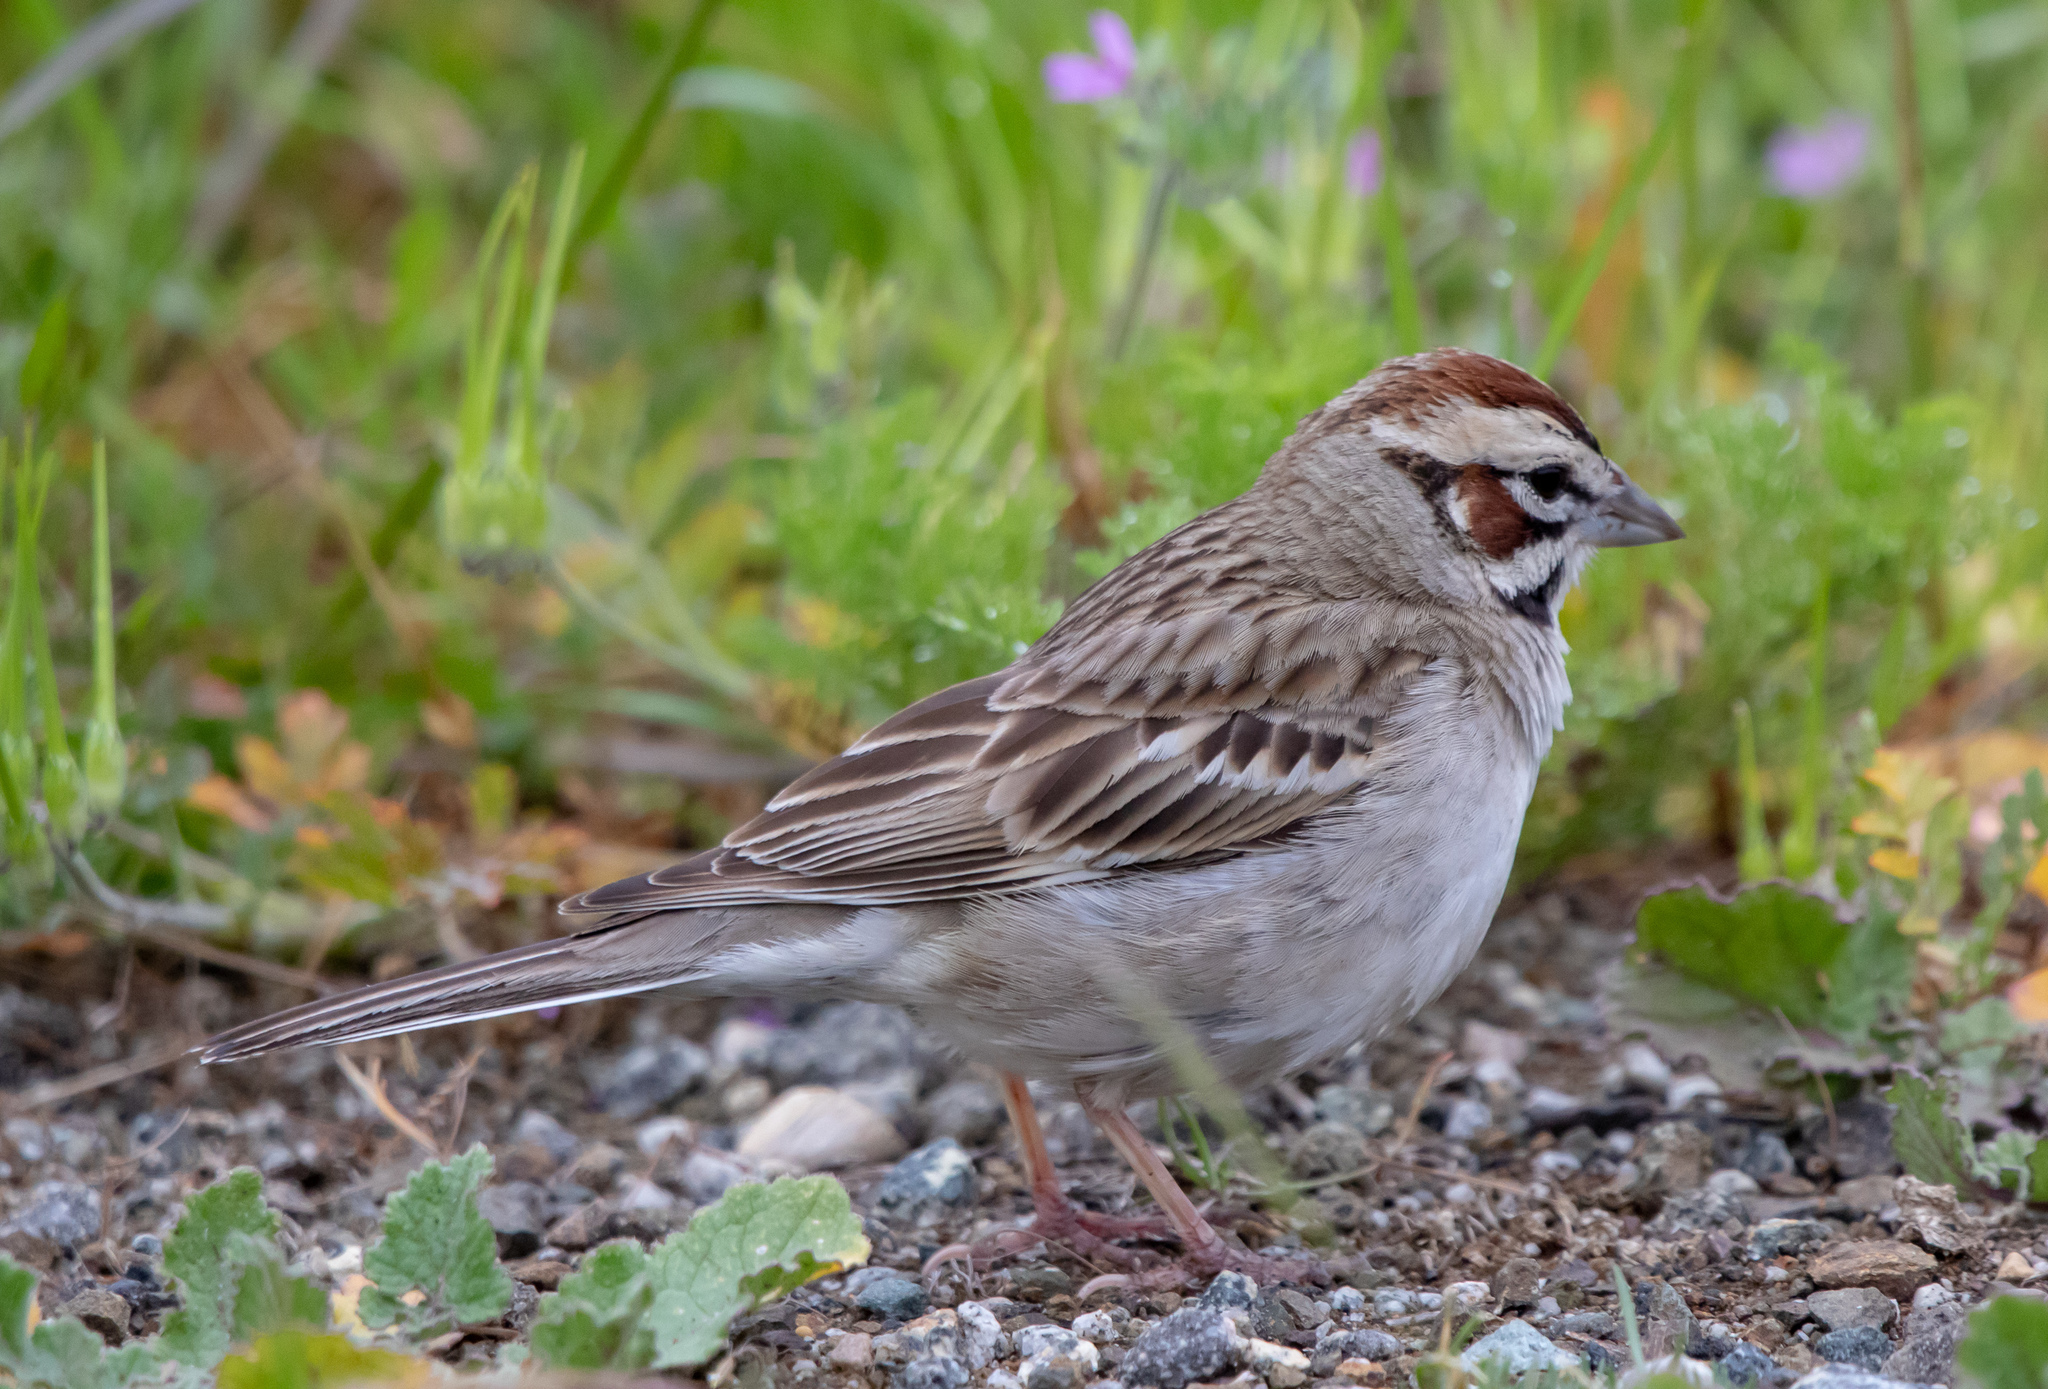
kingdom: Animalia
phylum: Chordata
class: Aves
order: Passeriformes
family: Passerellidae
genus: Chondestes
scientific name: Chondestes grammacus
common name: Lark sparrow
